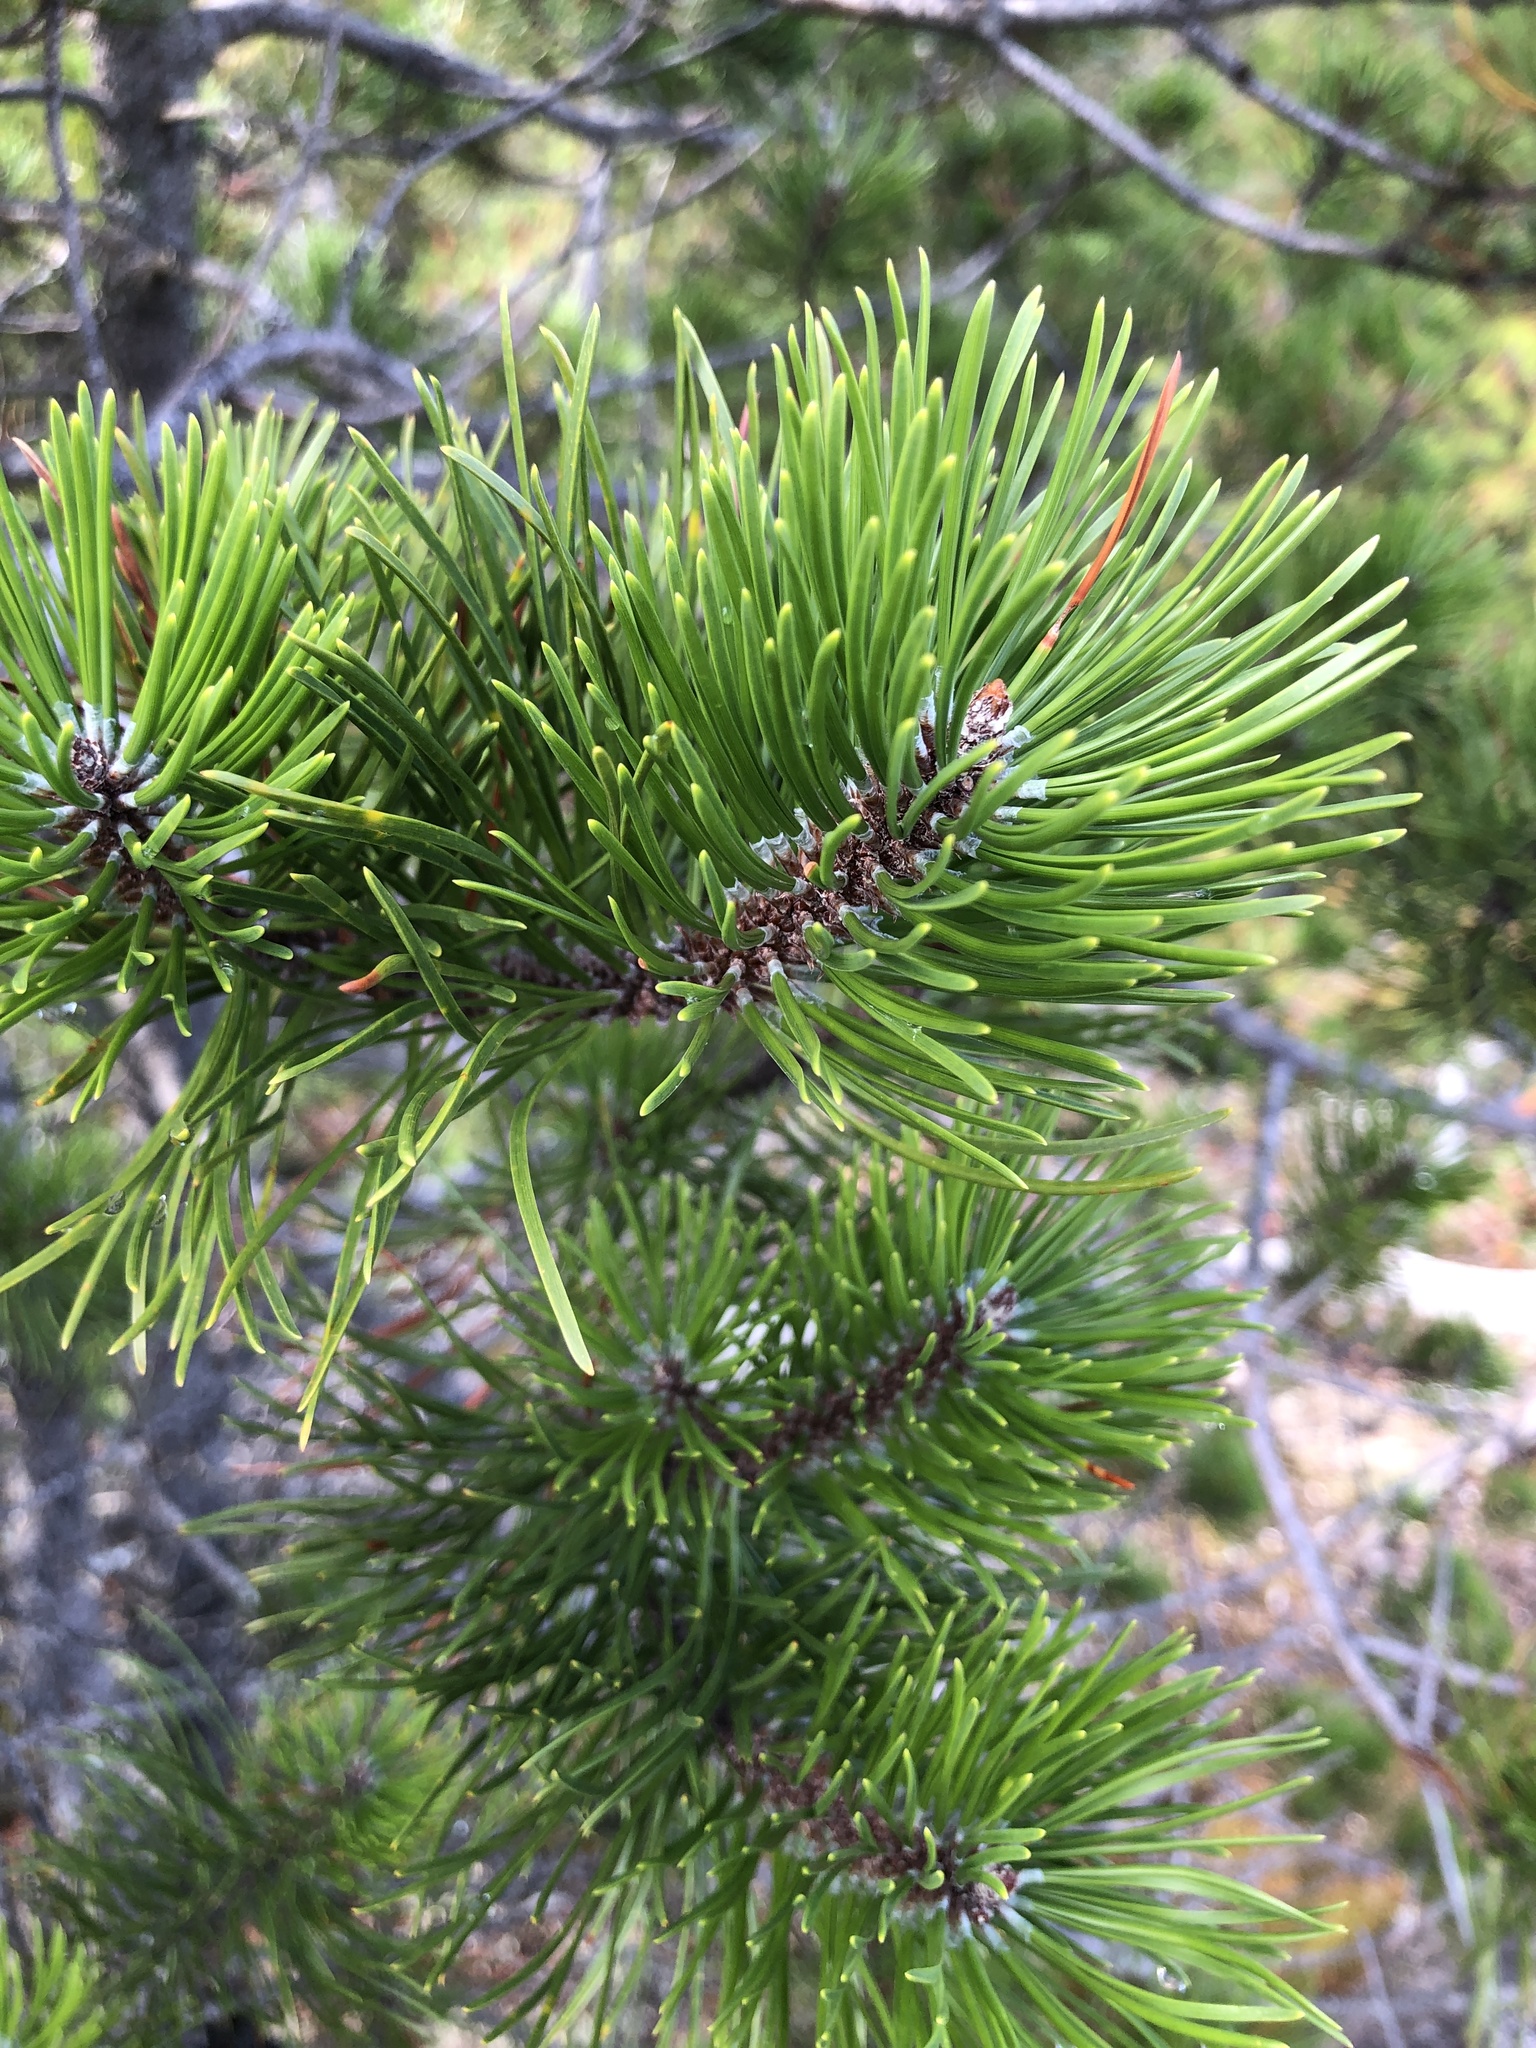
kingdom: Plantae
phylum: Tracheophyta
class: Pinopsida
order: Pinales
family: Pinaceae
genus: Pinus
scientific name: Pinus contorta
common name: Lodgepole pine
